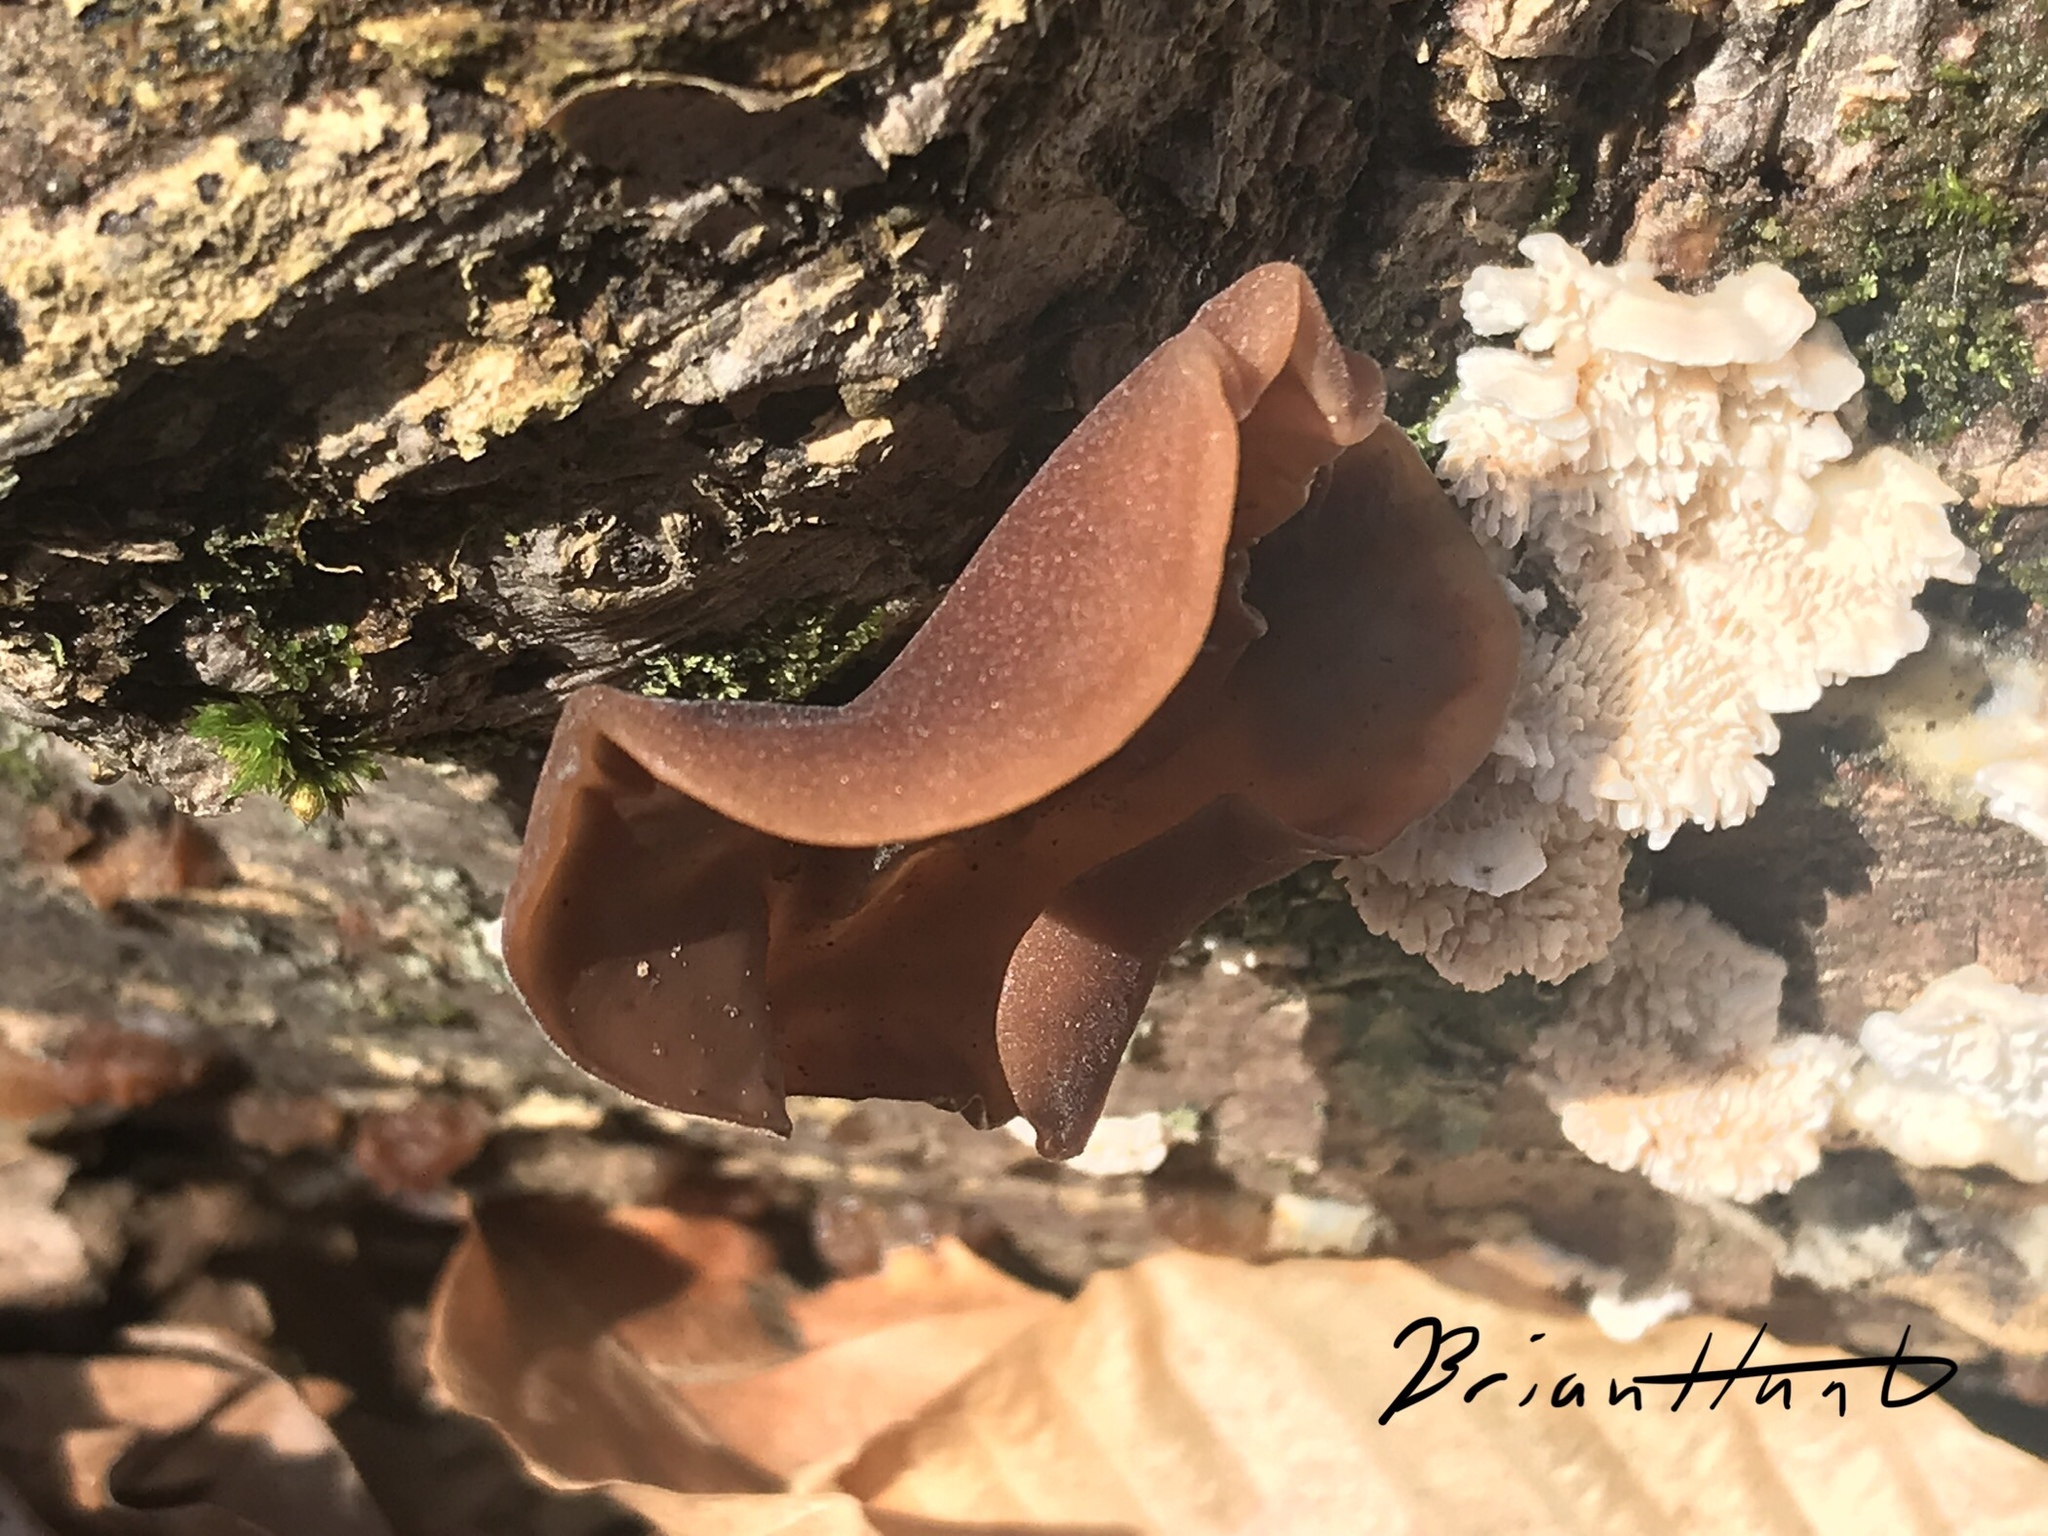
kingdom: Fungi
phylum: Basidiomycota
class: Agaricomycetes
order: Auriculariales
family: Auriculariaceae
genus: Auricularia
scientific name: Auricularia angiospermarum
